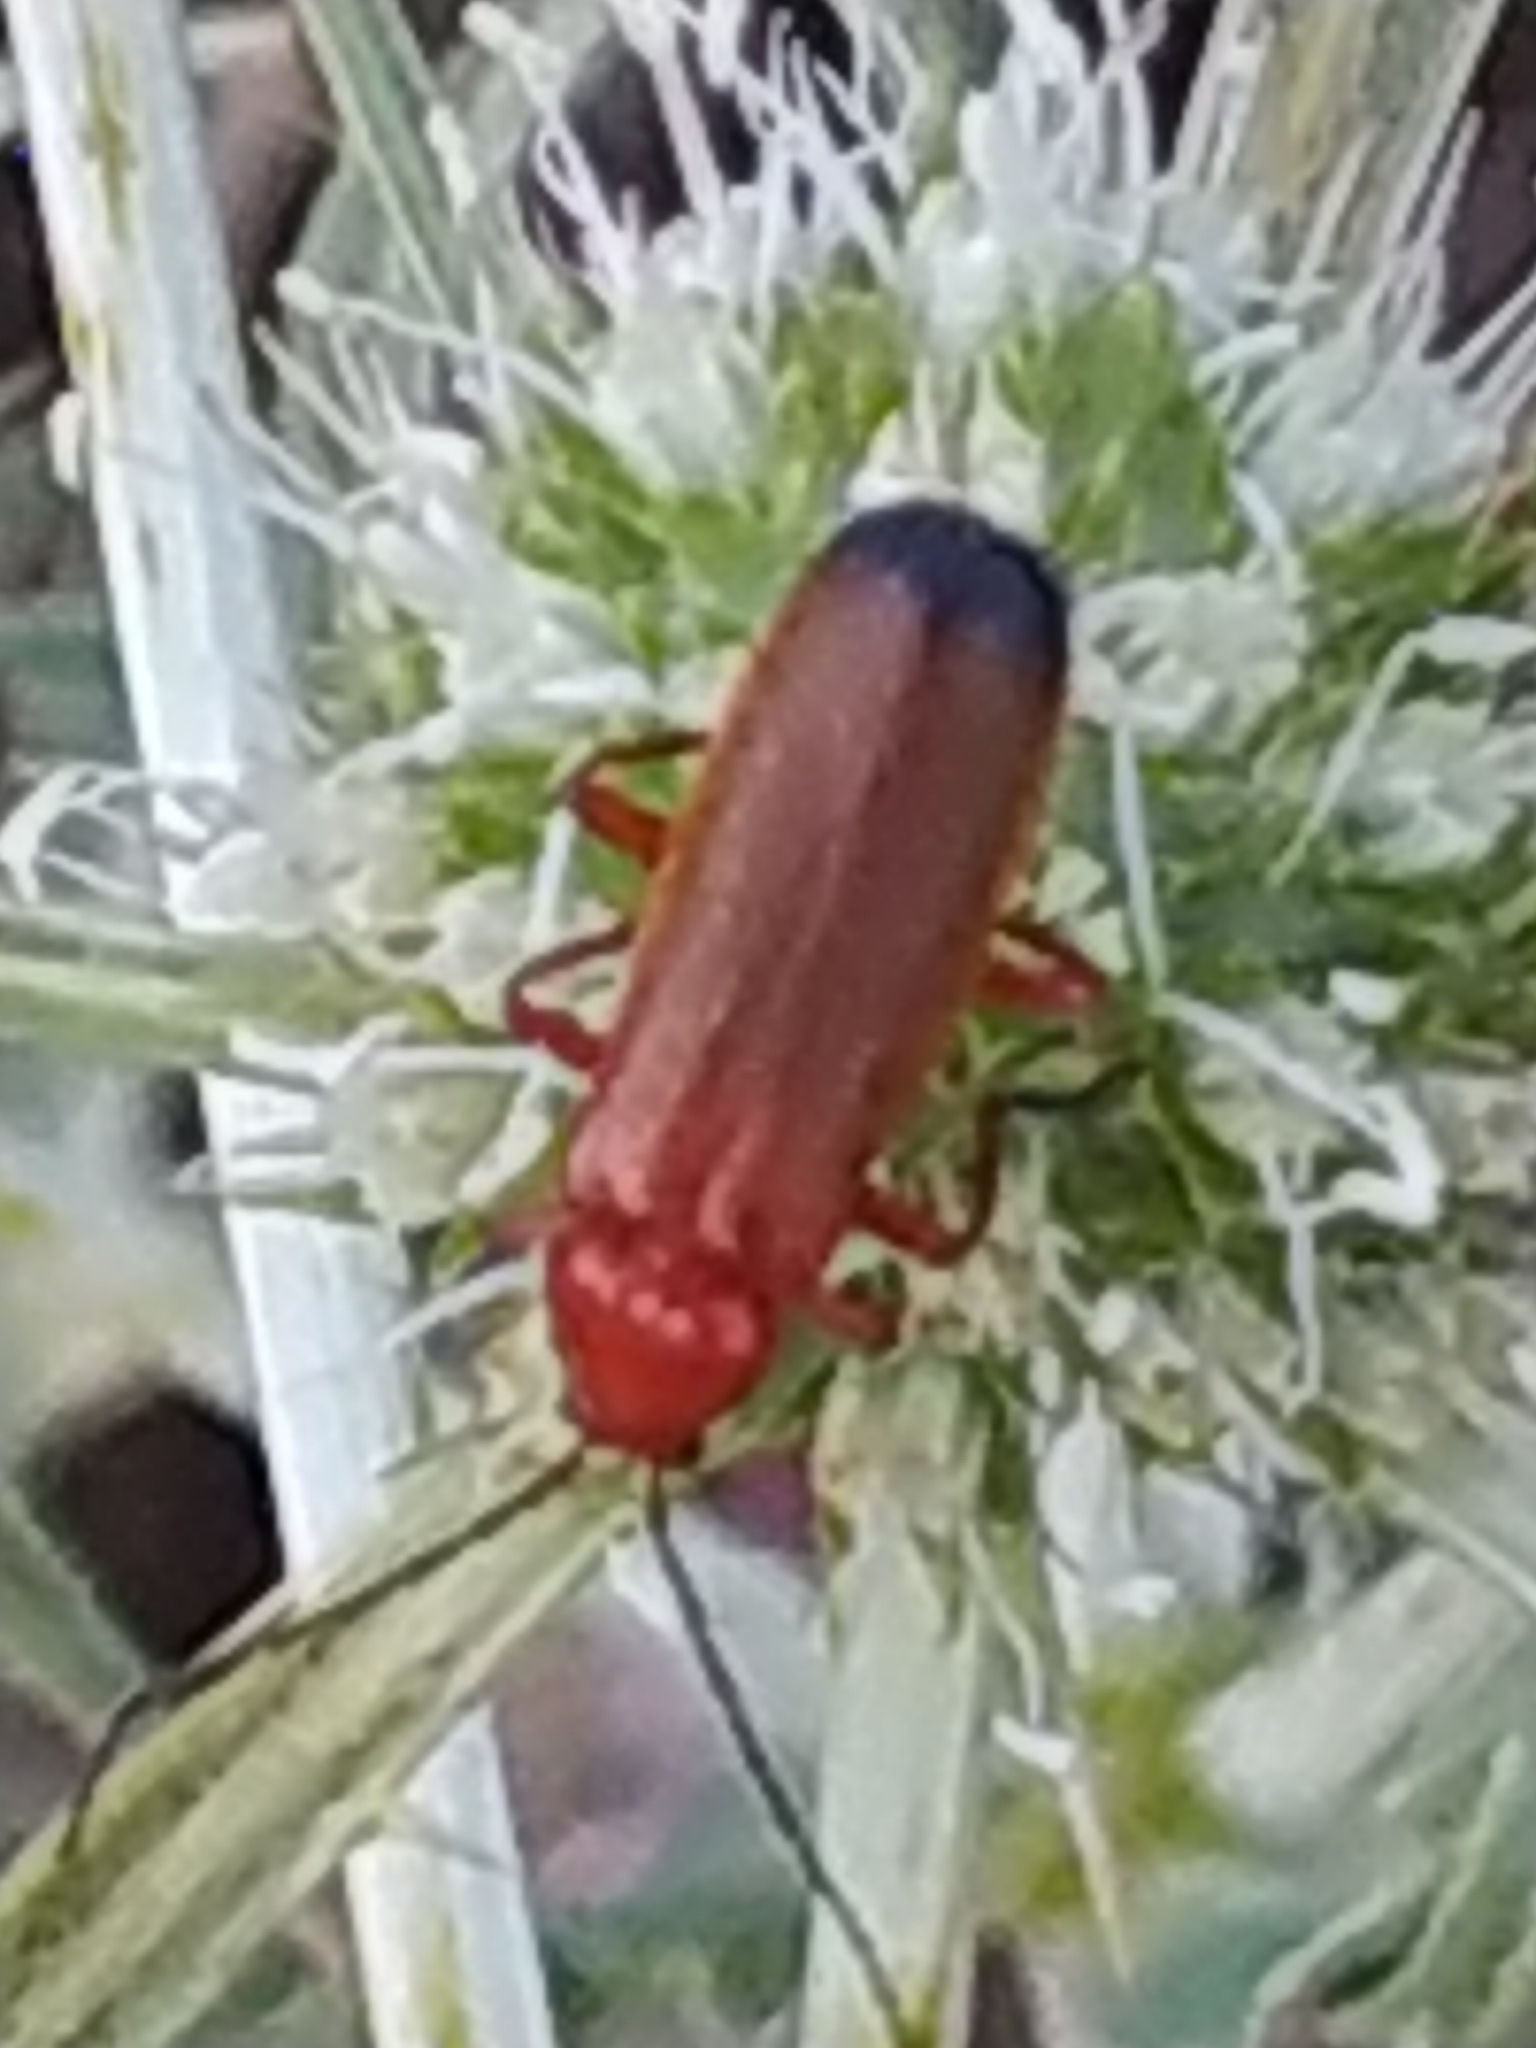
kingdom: Animalia
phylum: Arthropoda
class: Insecta
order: Coleoptera
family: Cantharidae
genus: Rhagonycha
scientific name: Rhagonycha fulva
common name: Common red soldier beetle
